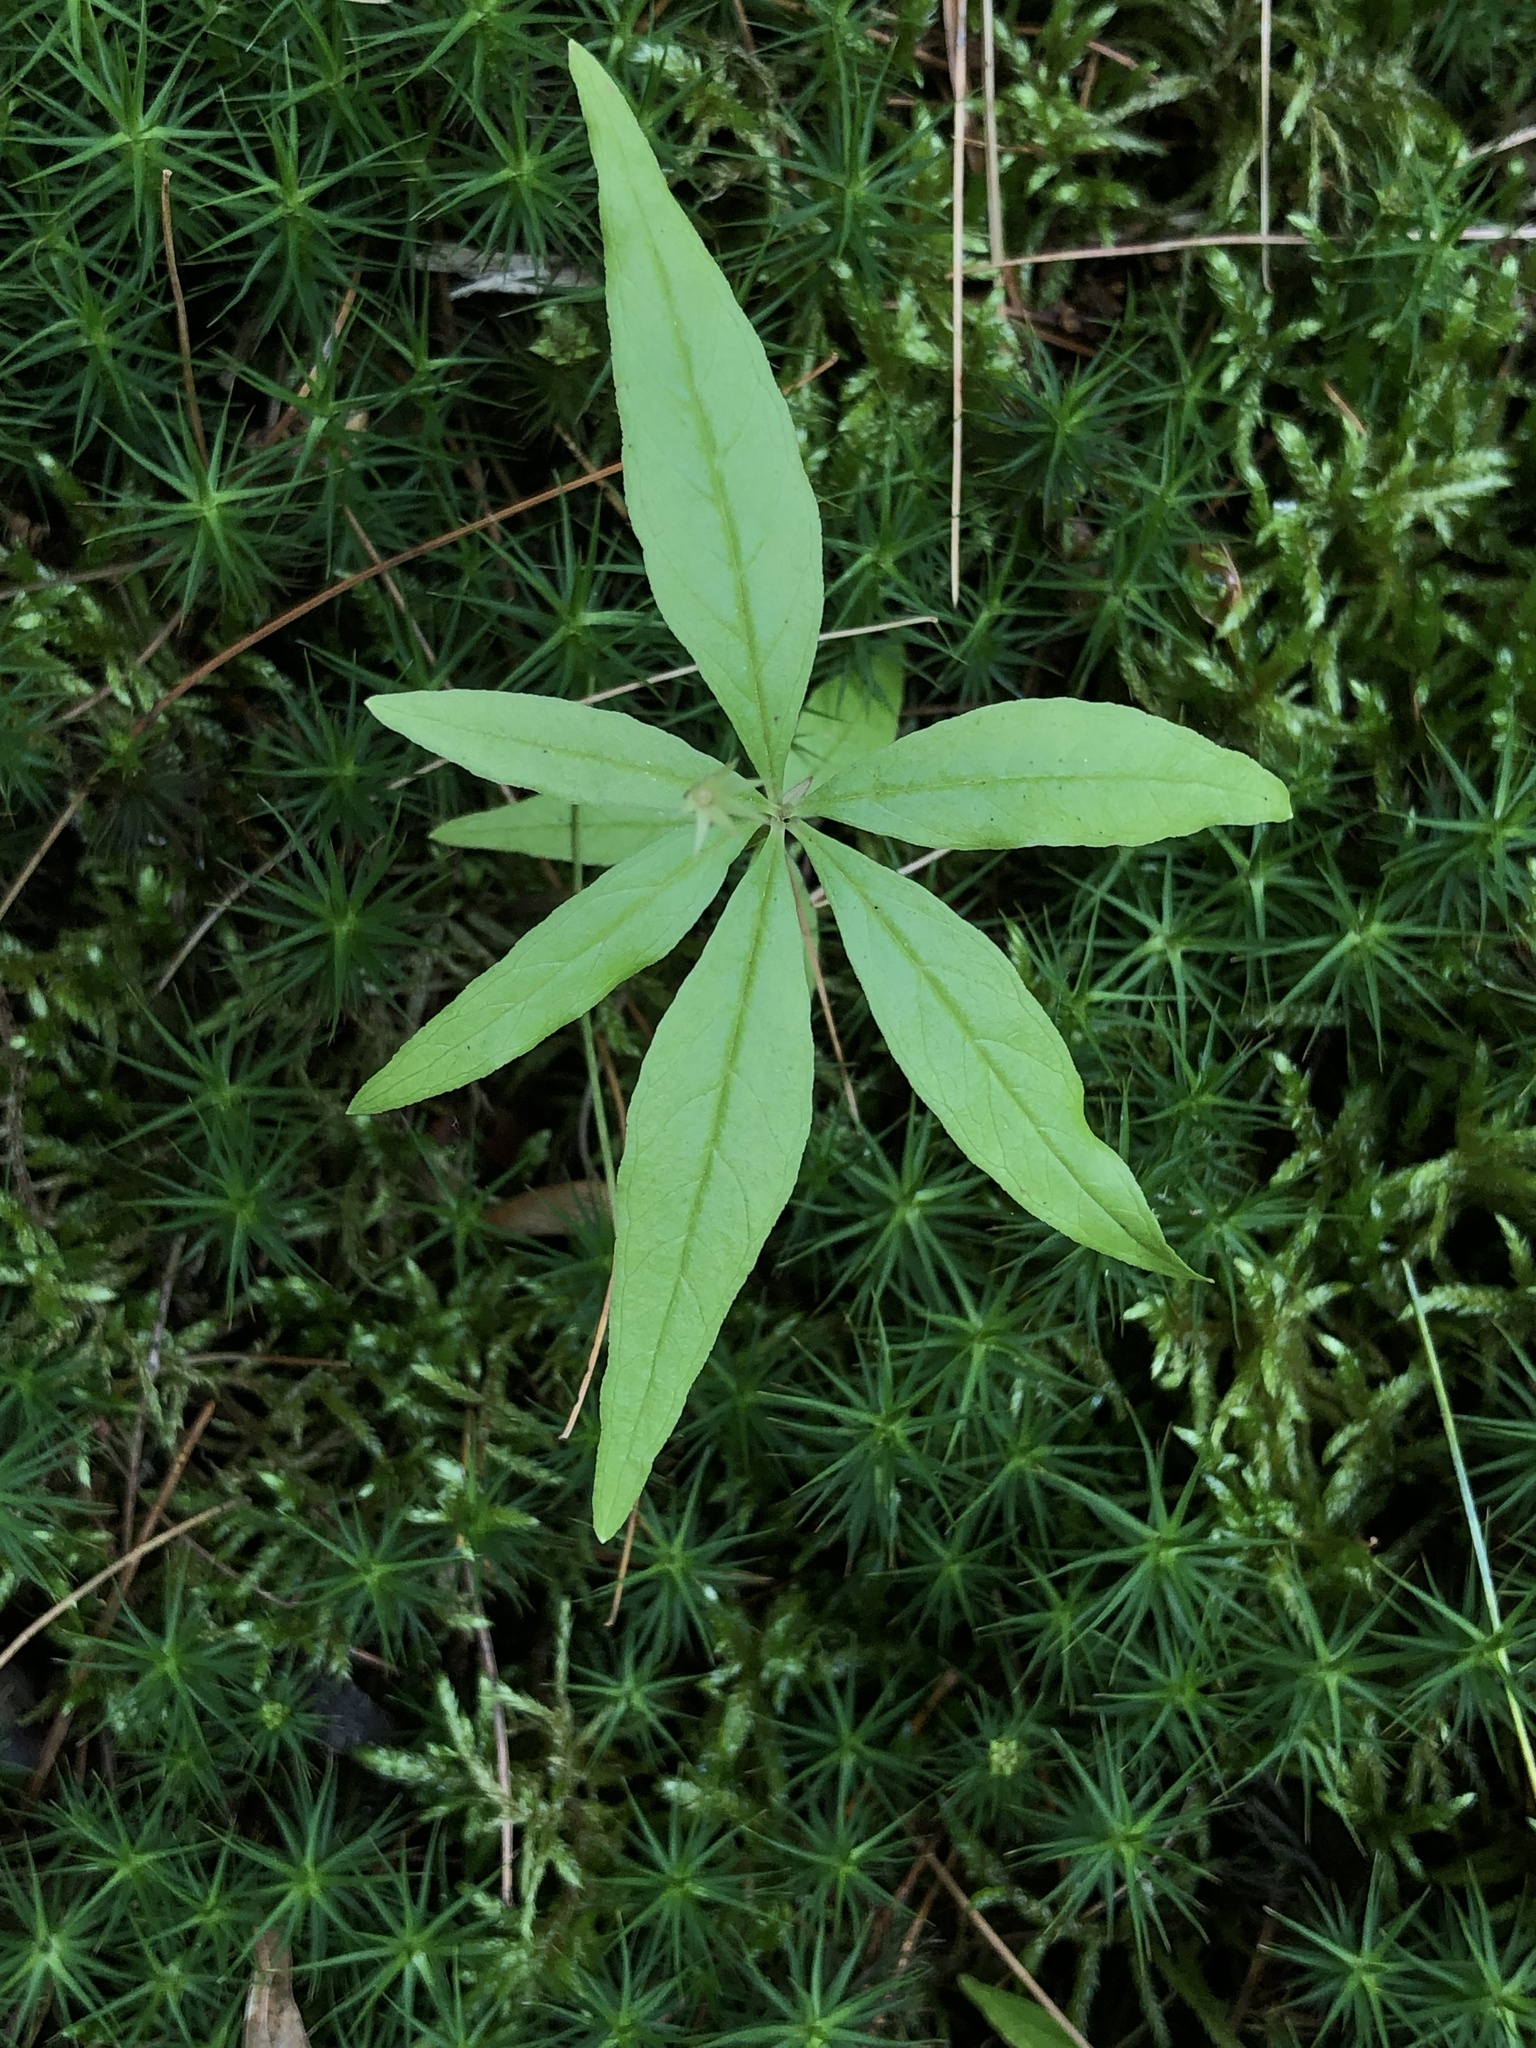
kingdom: Plantae
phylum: Tracheophyta
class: Magnoliopsida
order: Ericales
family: Primulaceae
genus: Lysimachia
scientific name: Lysimachia borealis
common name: American starflower
